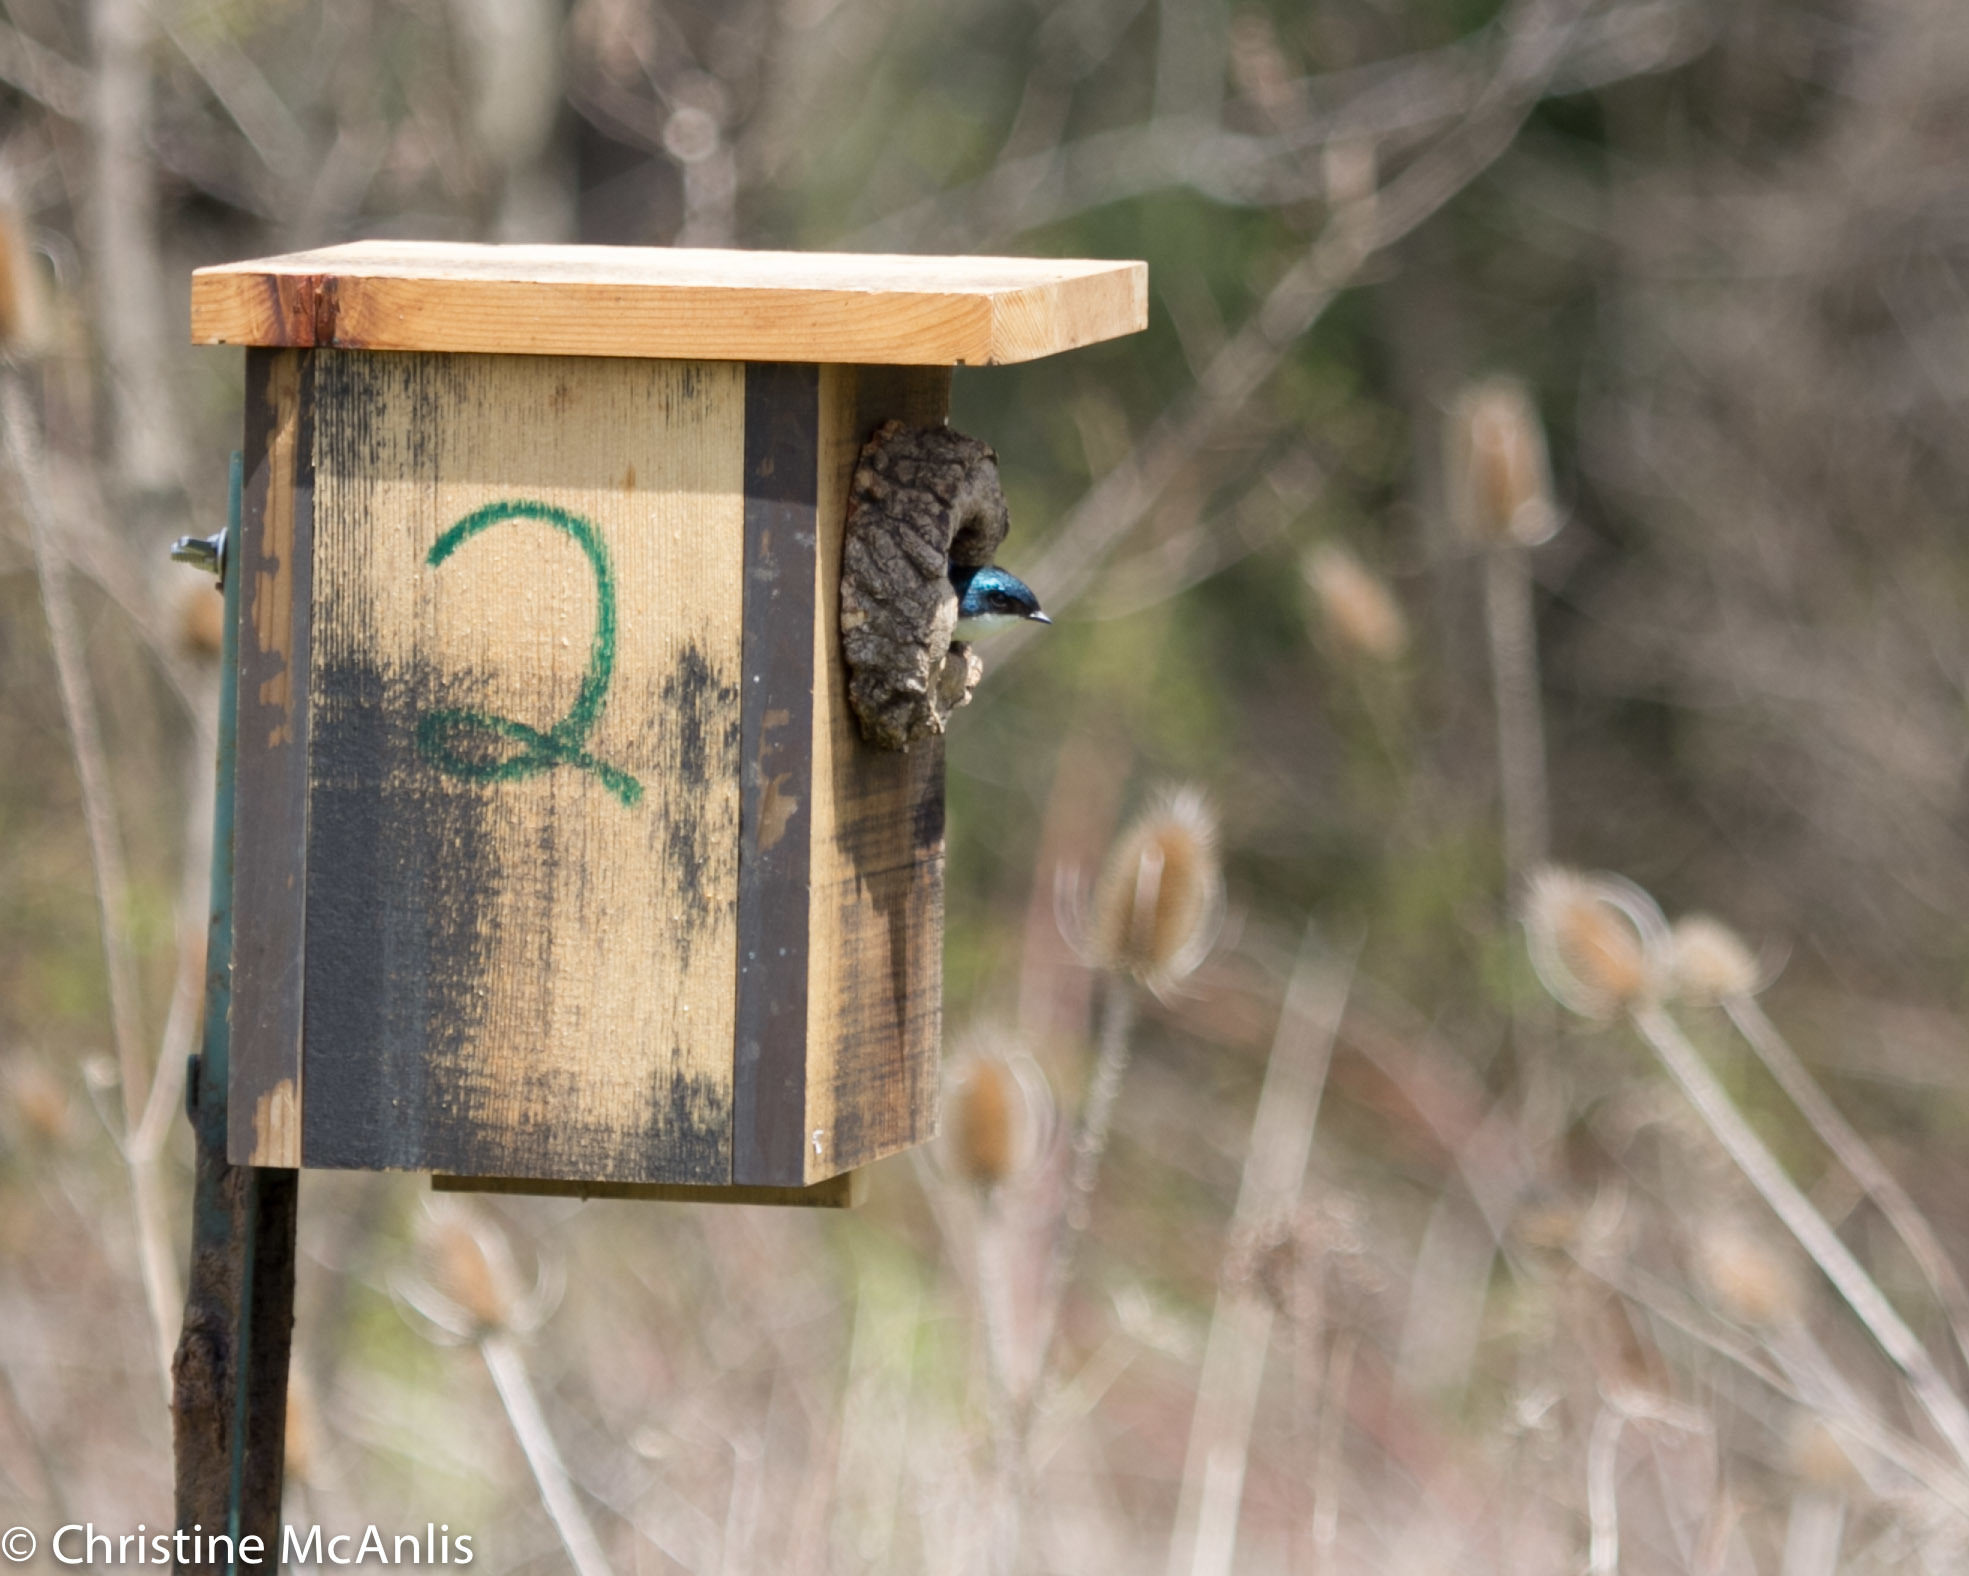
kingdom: Animalia
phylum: Chordata
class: Aves
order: Passeriformes
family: Hirundinidae
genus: Tachycineta
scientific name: Tachycineta bicolor
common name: Tree swallow
